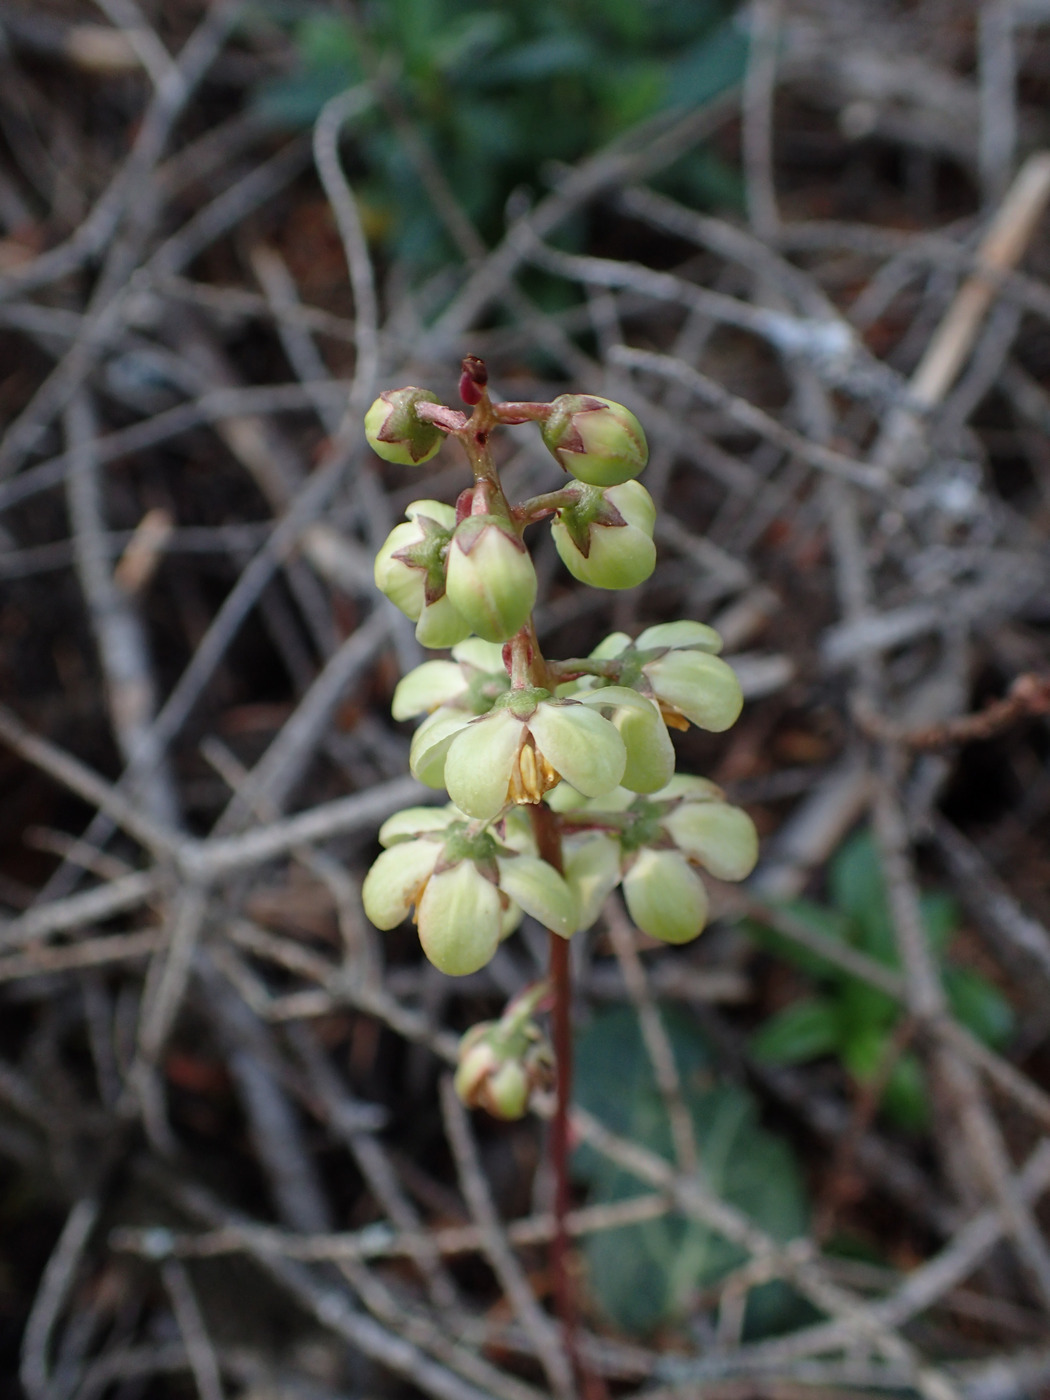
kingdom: Plantae
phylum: Tracheophyta
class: Magnoliopsida
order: Ericales
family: Ericaceae
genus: Pyrola
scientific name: Pyrola picta
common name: White-vein wintergreen
